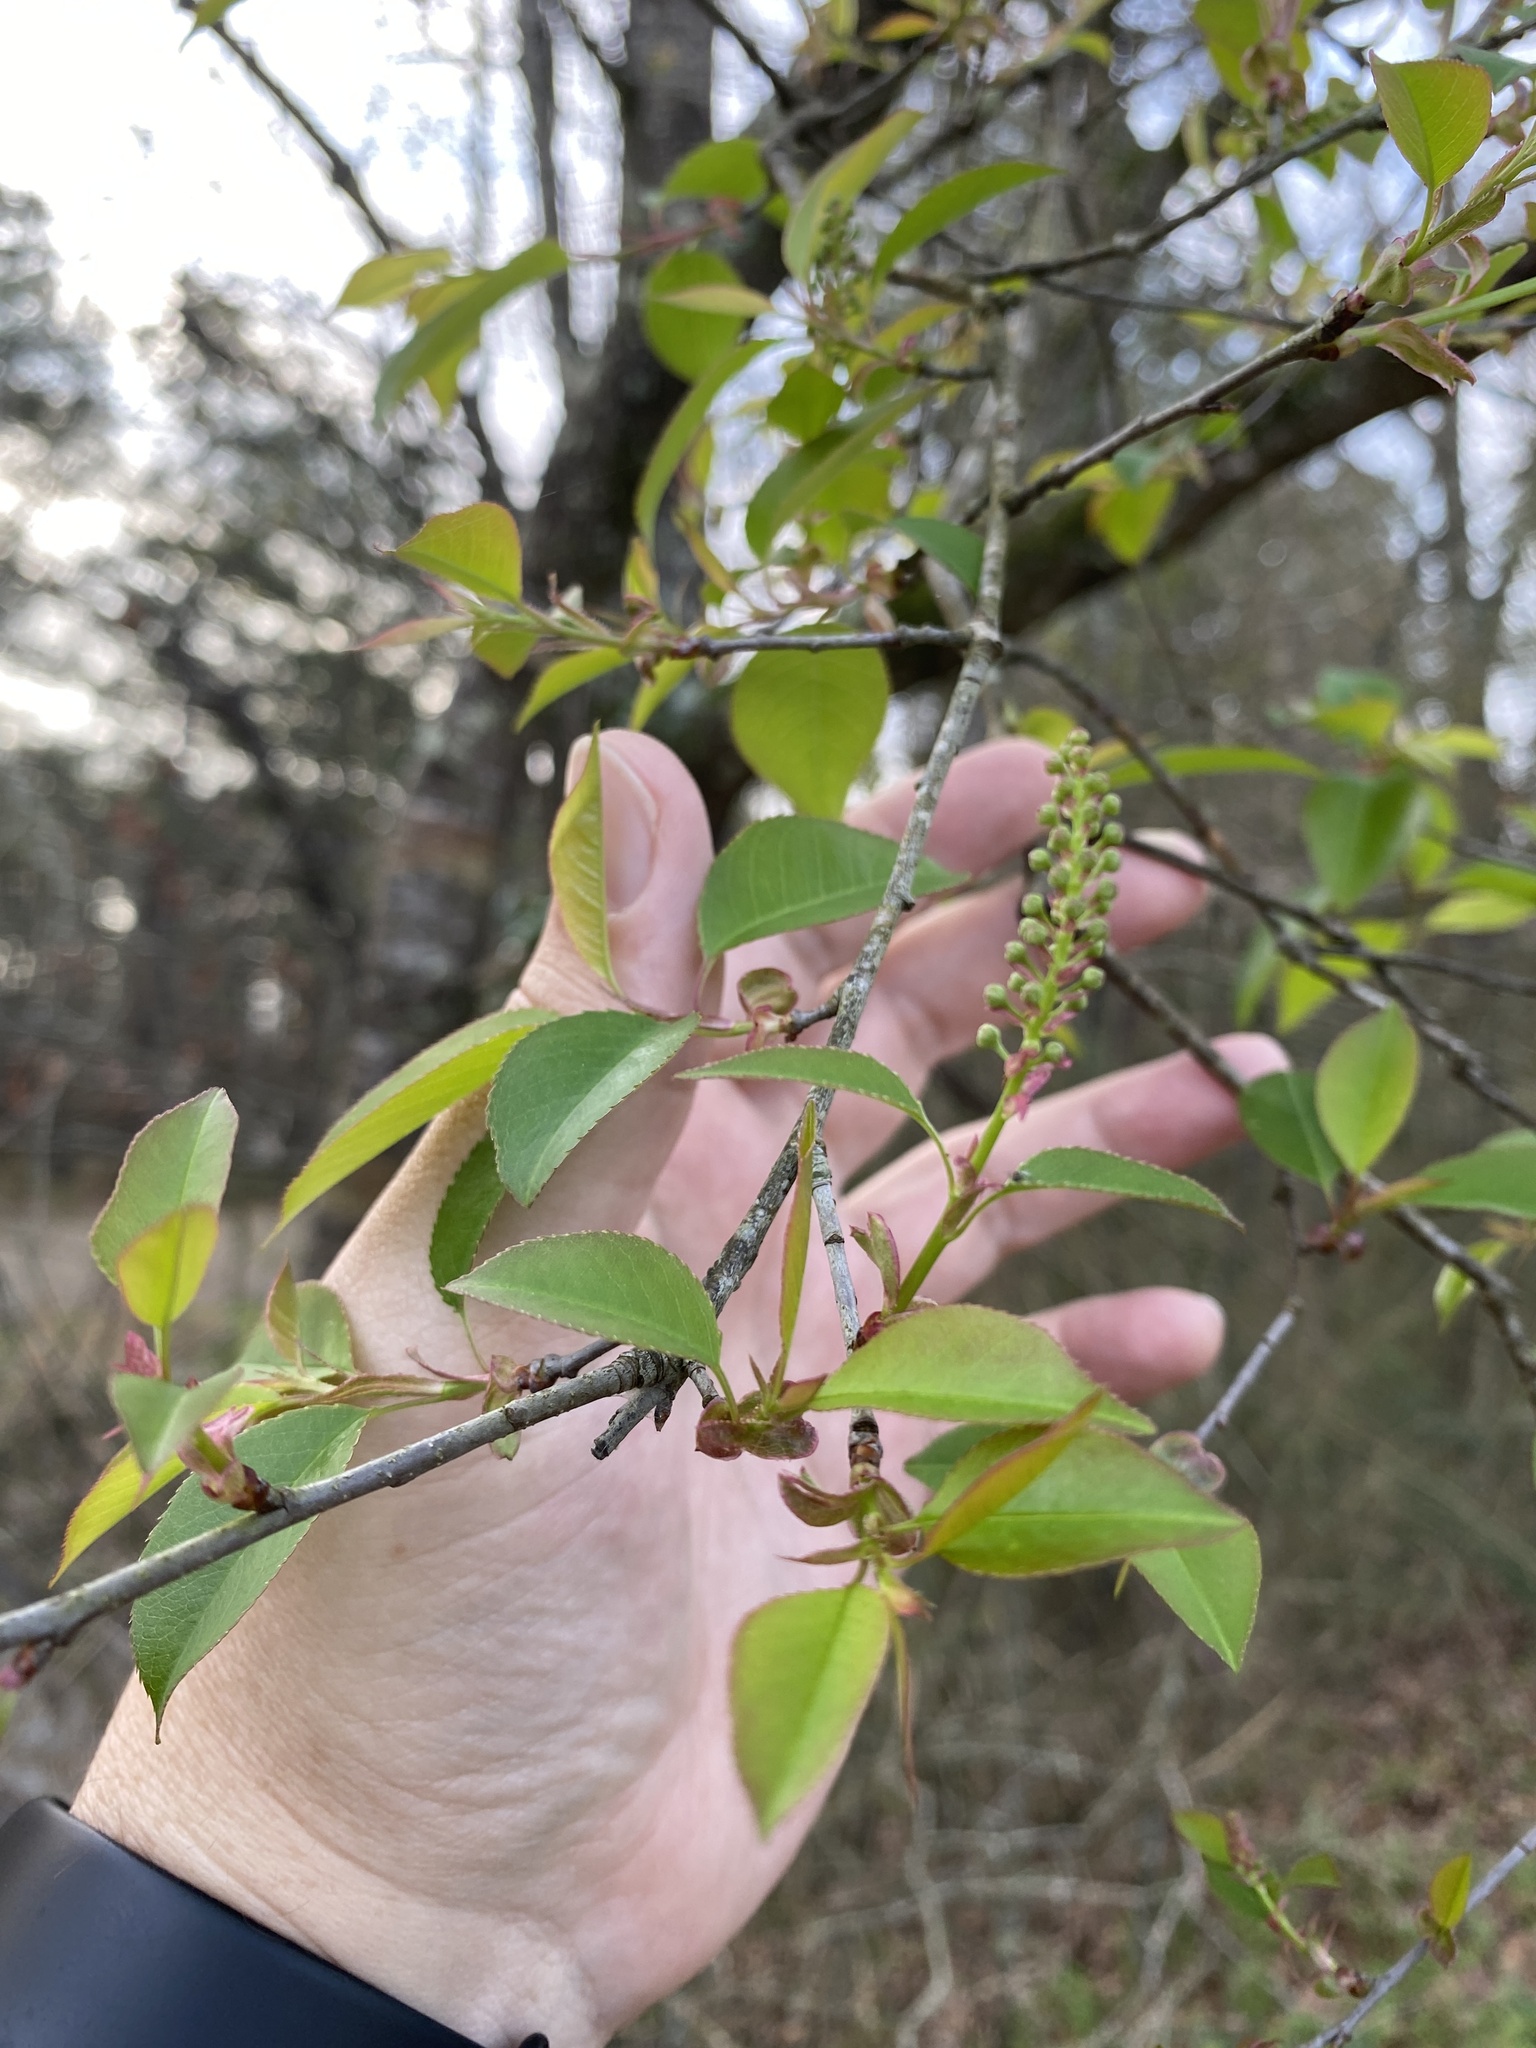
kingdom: Plantae
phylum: Tracheophyta
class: Magnoliopsida
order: Rosales
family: Rosaceae
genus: Prunus
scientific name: Prunus serotina
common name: Black cherry
